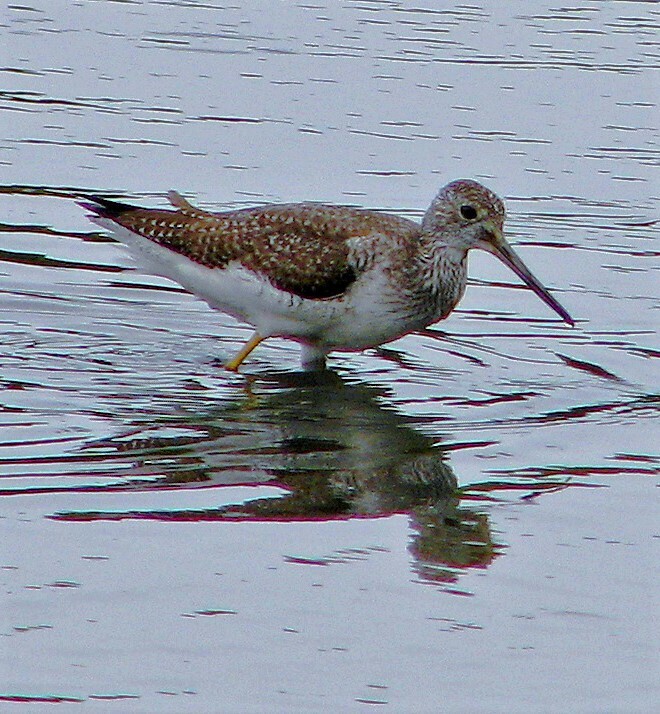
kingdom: Animalia
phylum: Chordata
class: Aves
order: Charadriiformes
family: Scolopacidae
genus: Tringa
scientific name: Tringa melanoleuca
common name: Greater yellowlegs
